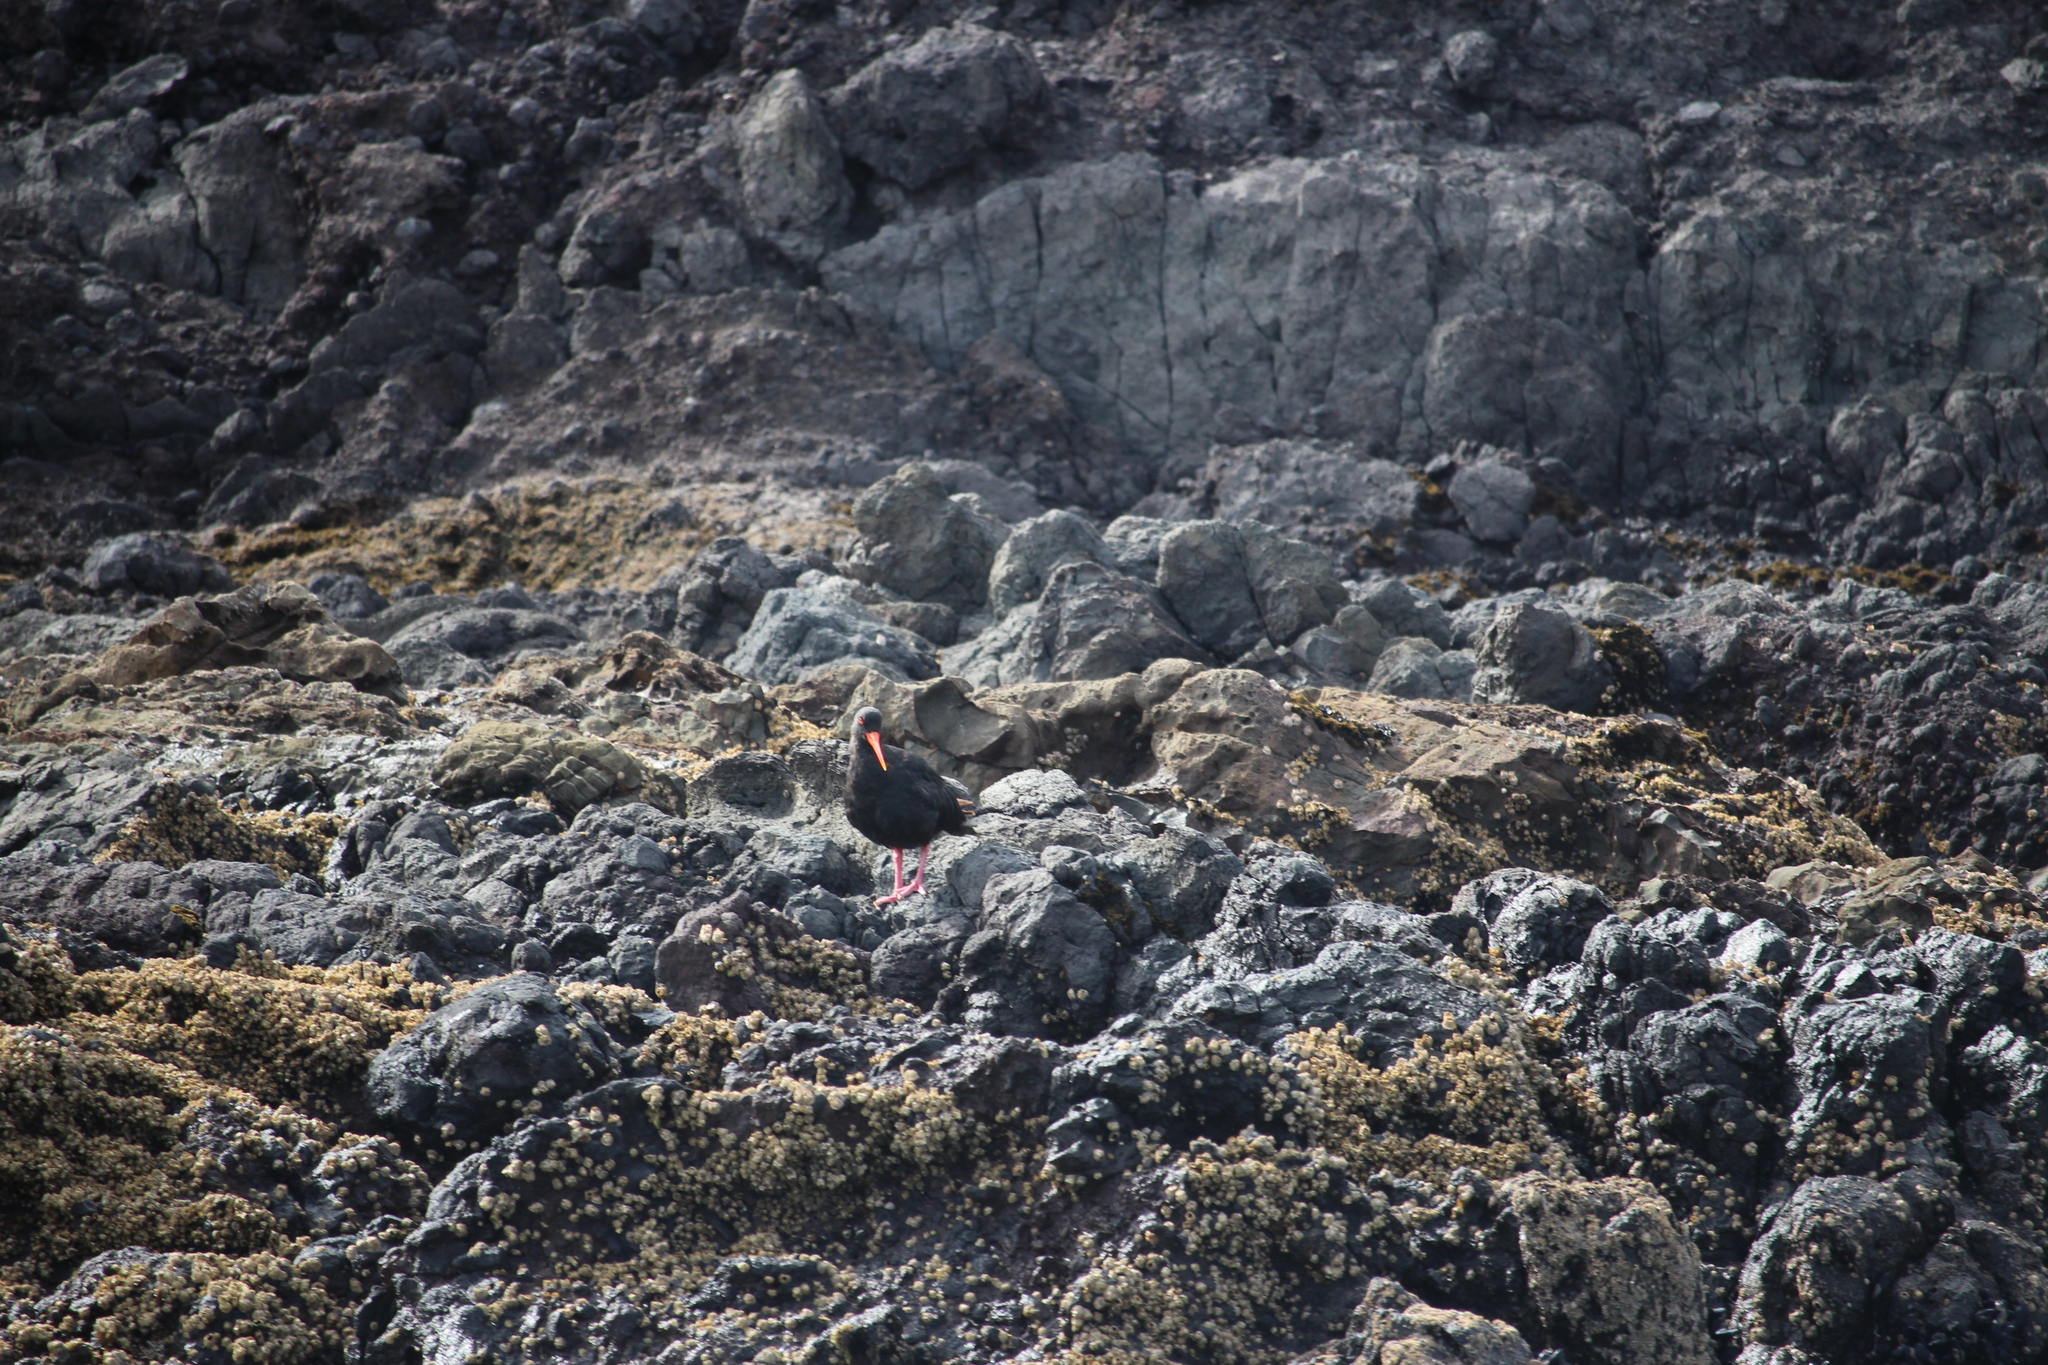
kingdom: Animalia
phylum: Chordata
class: Aves
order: Charadriiformes
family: Haematopodidae
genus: Haematopus
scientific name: Haematopus unicolor
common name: Variable oystercatcher
